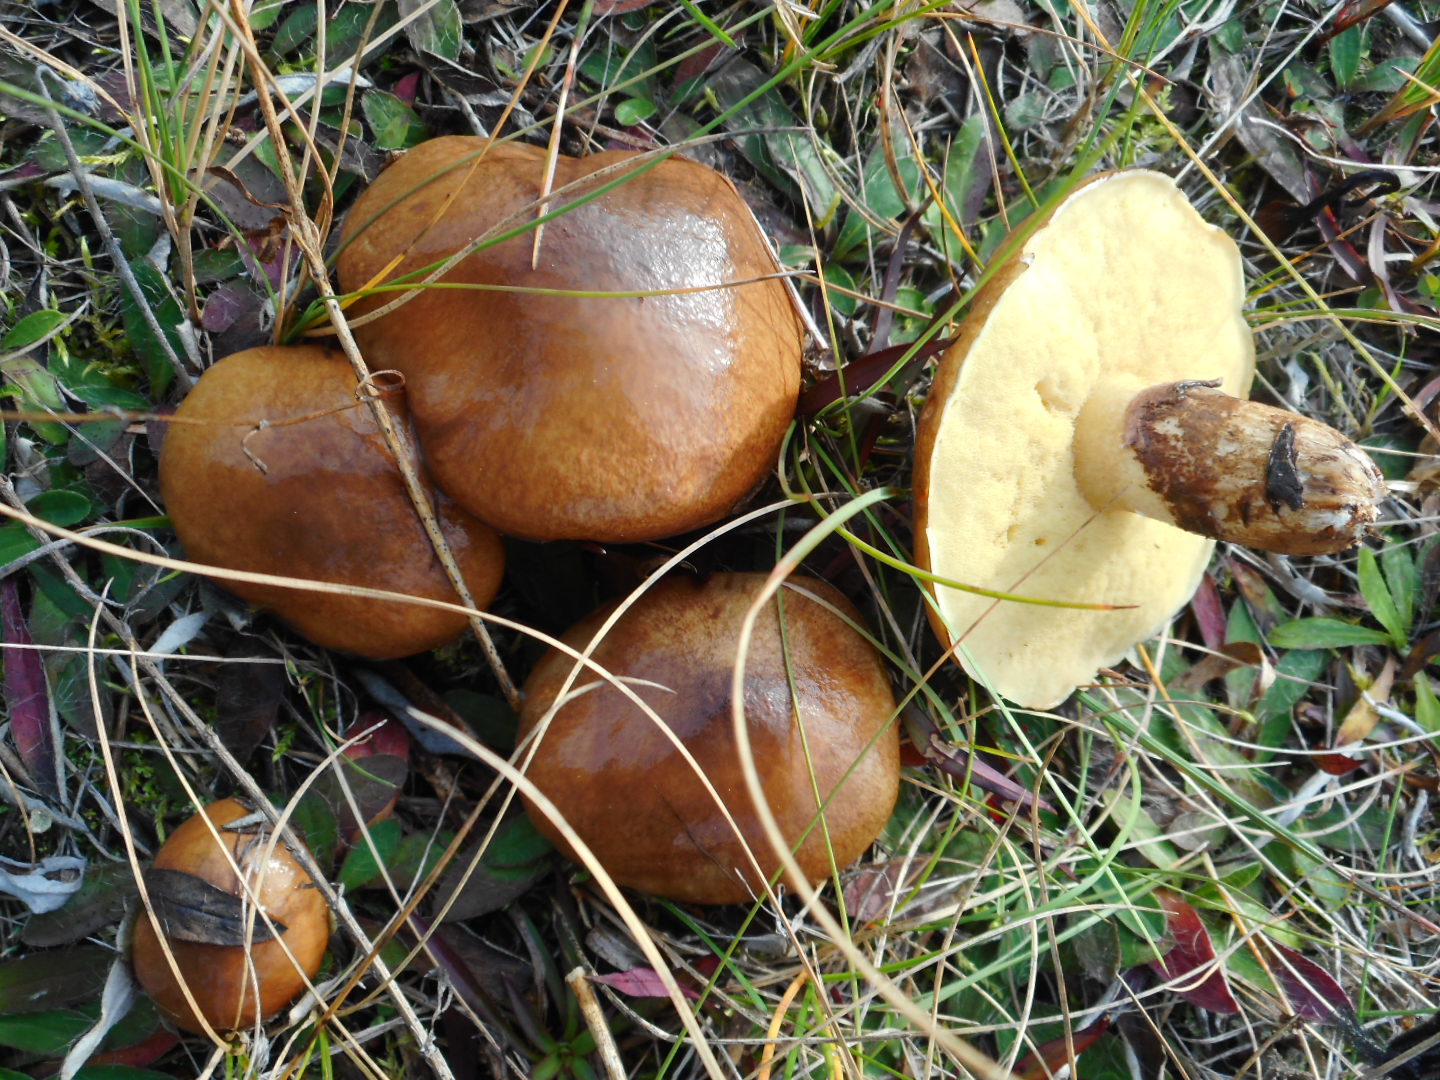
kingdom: Fungi
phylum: Basidiomycota
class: Agaricomycetes
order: Boletales
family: Suillaceae
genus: Suillus
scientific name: Suillus luteus
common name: Slippery jack
